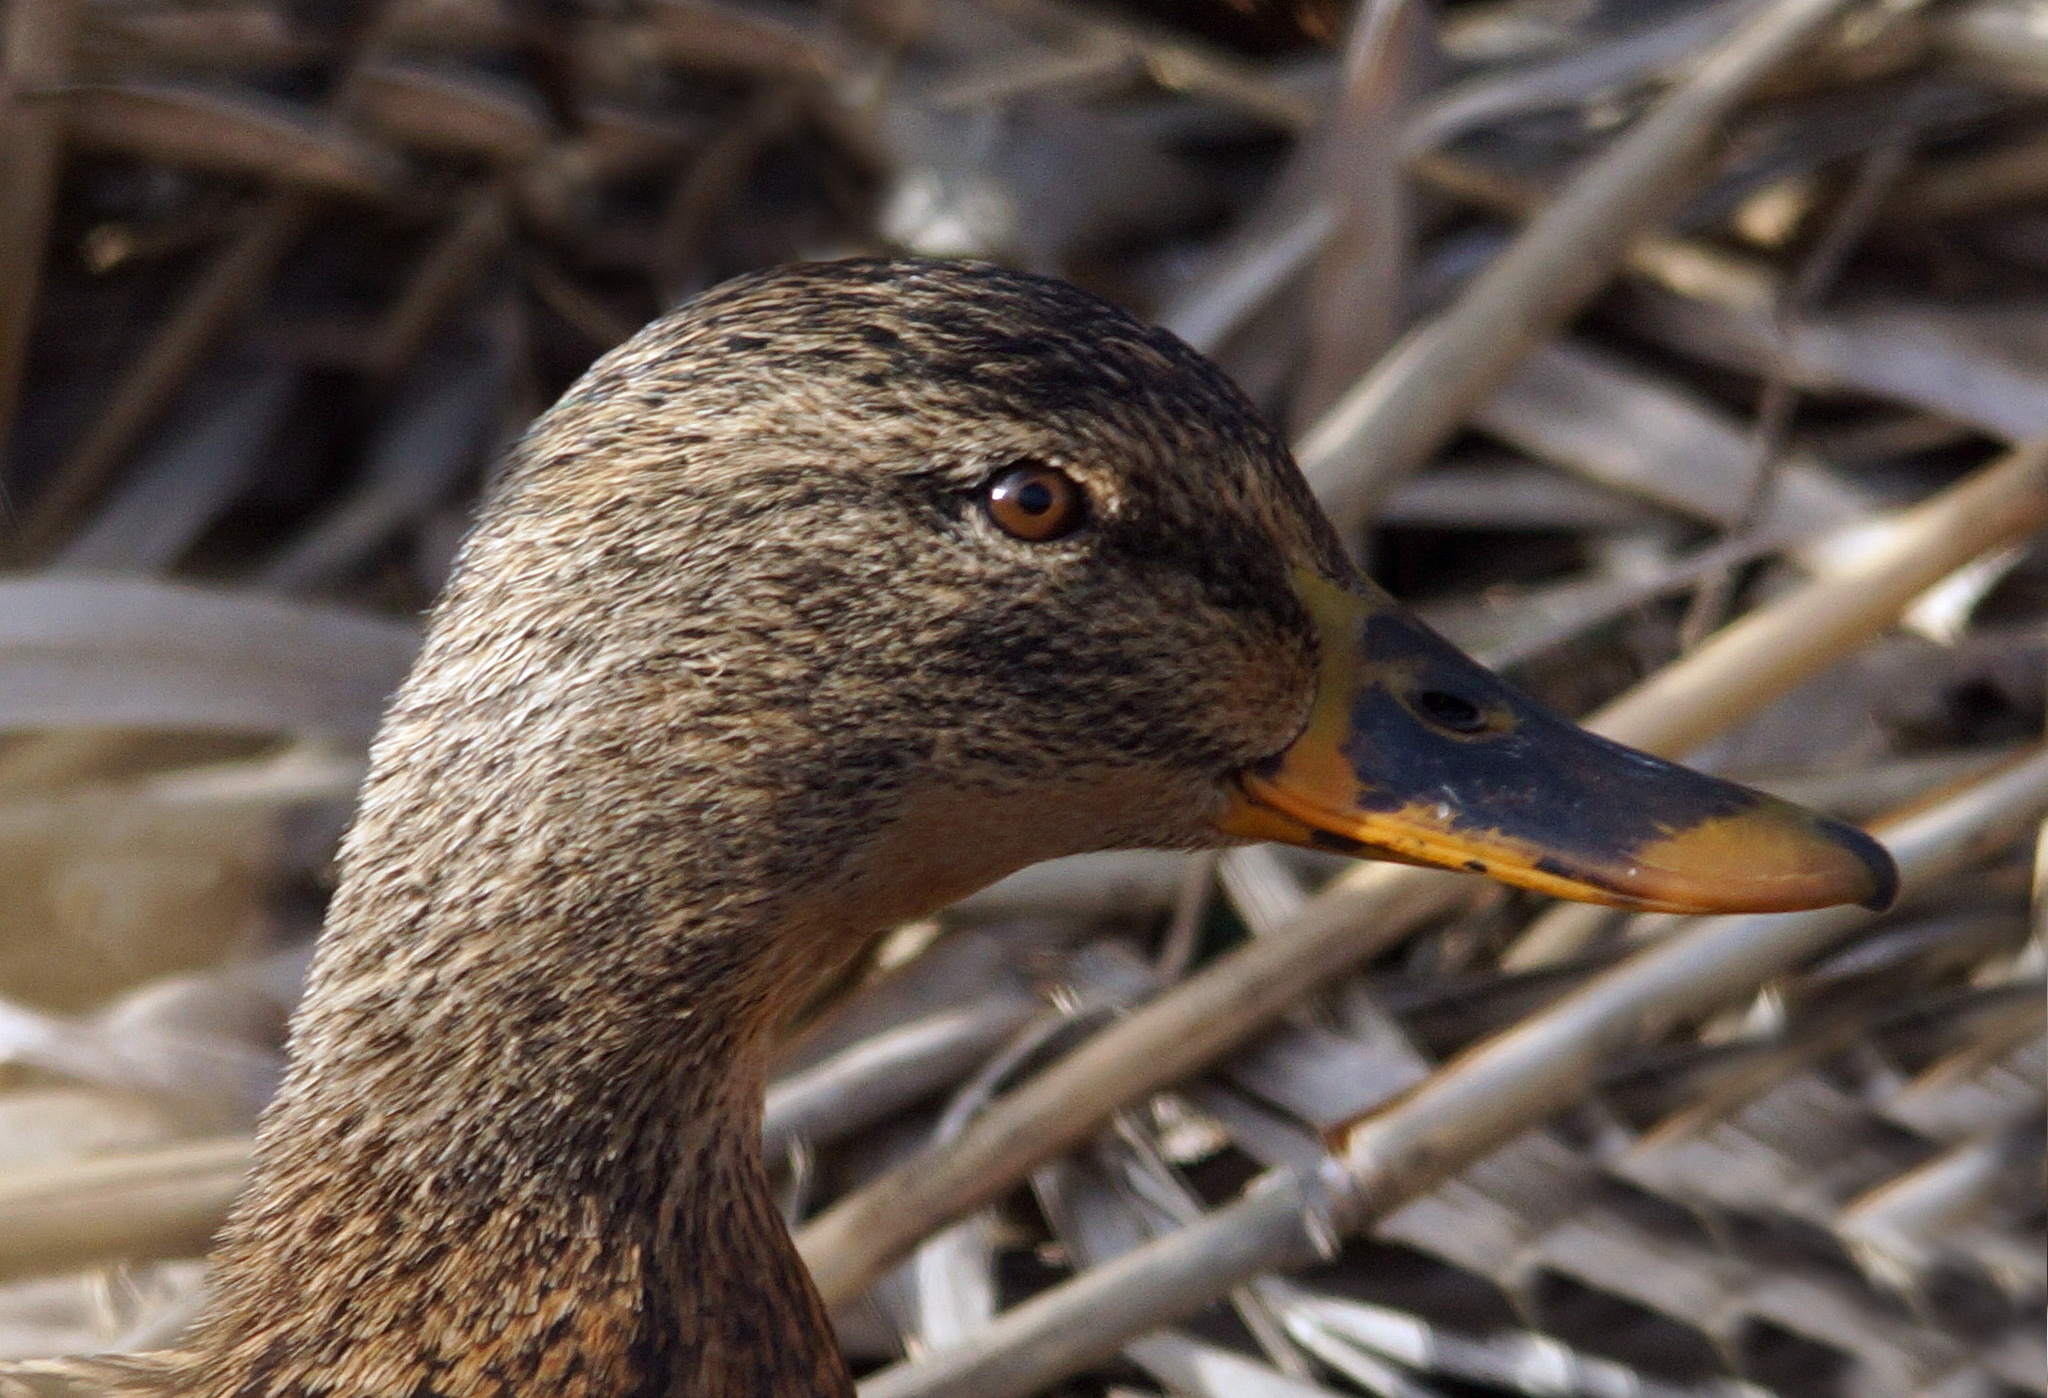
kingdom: Animalia
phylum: Chordata
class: Aves
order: Anseriformes
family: Anatidae
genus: Anas
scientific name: Anas platyrhynchos
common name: Mallard
